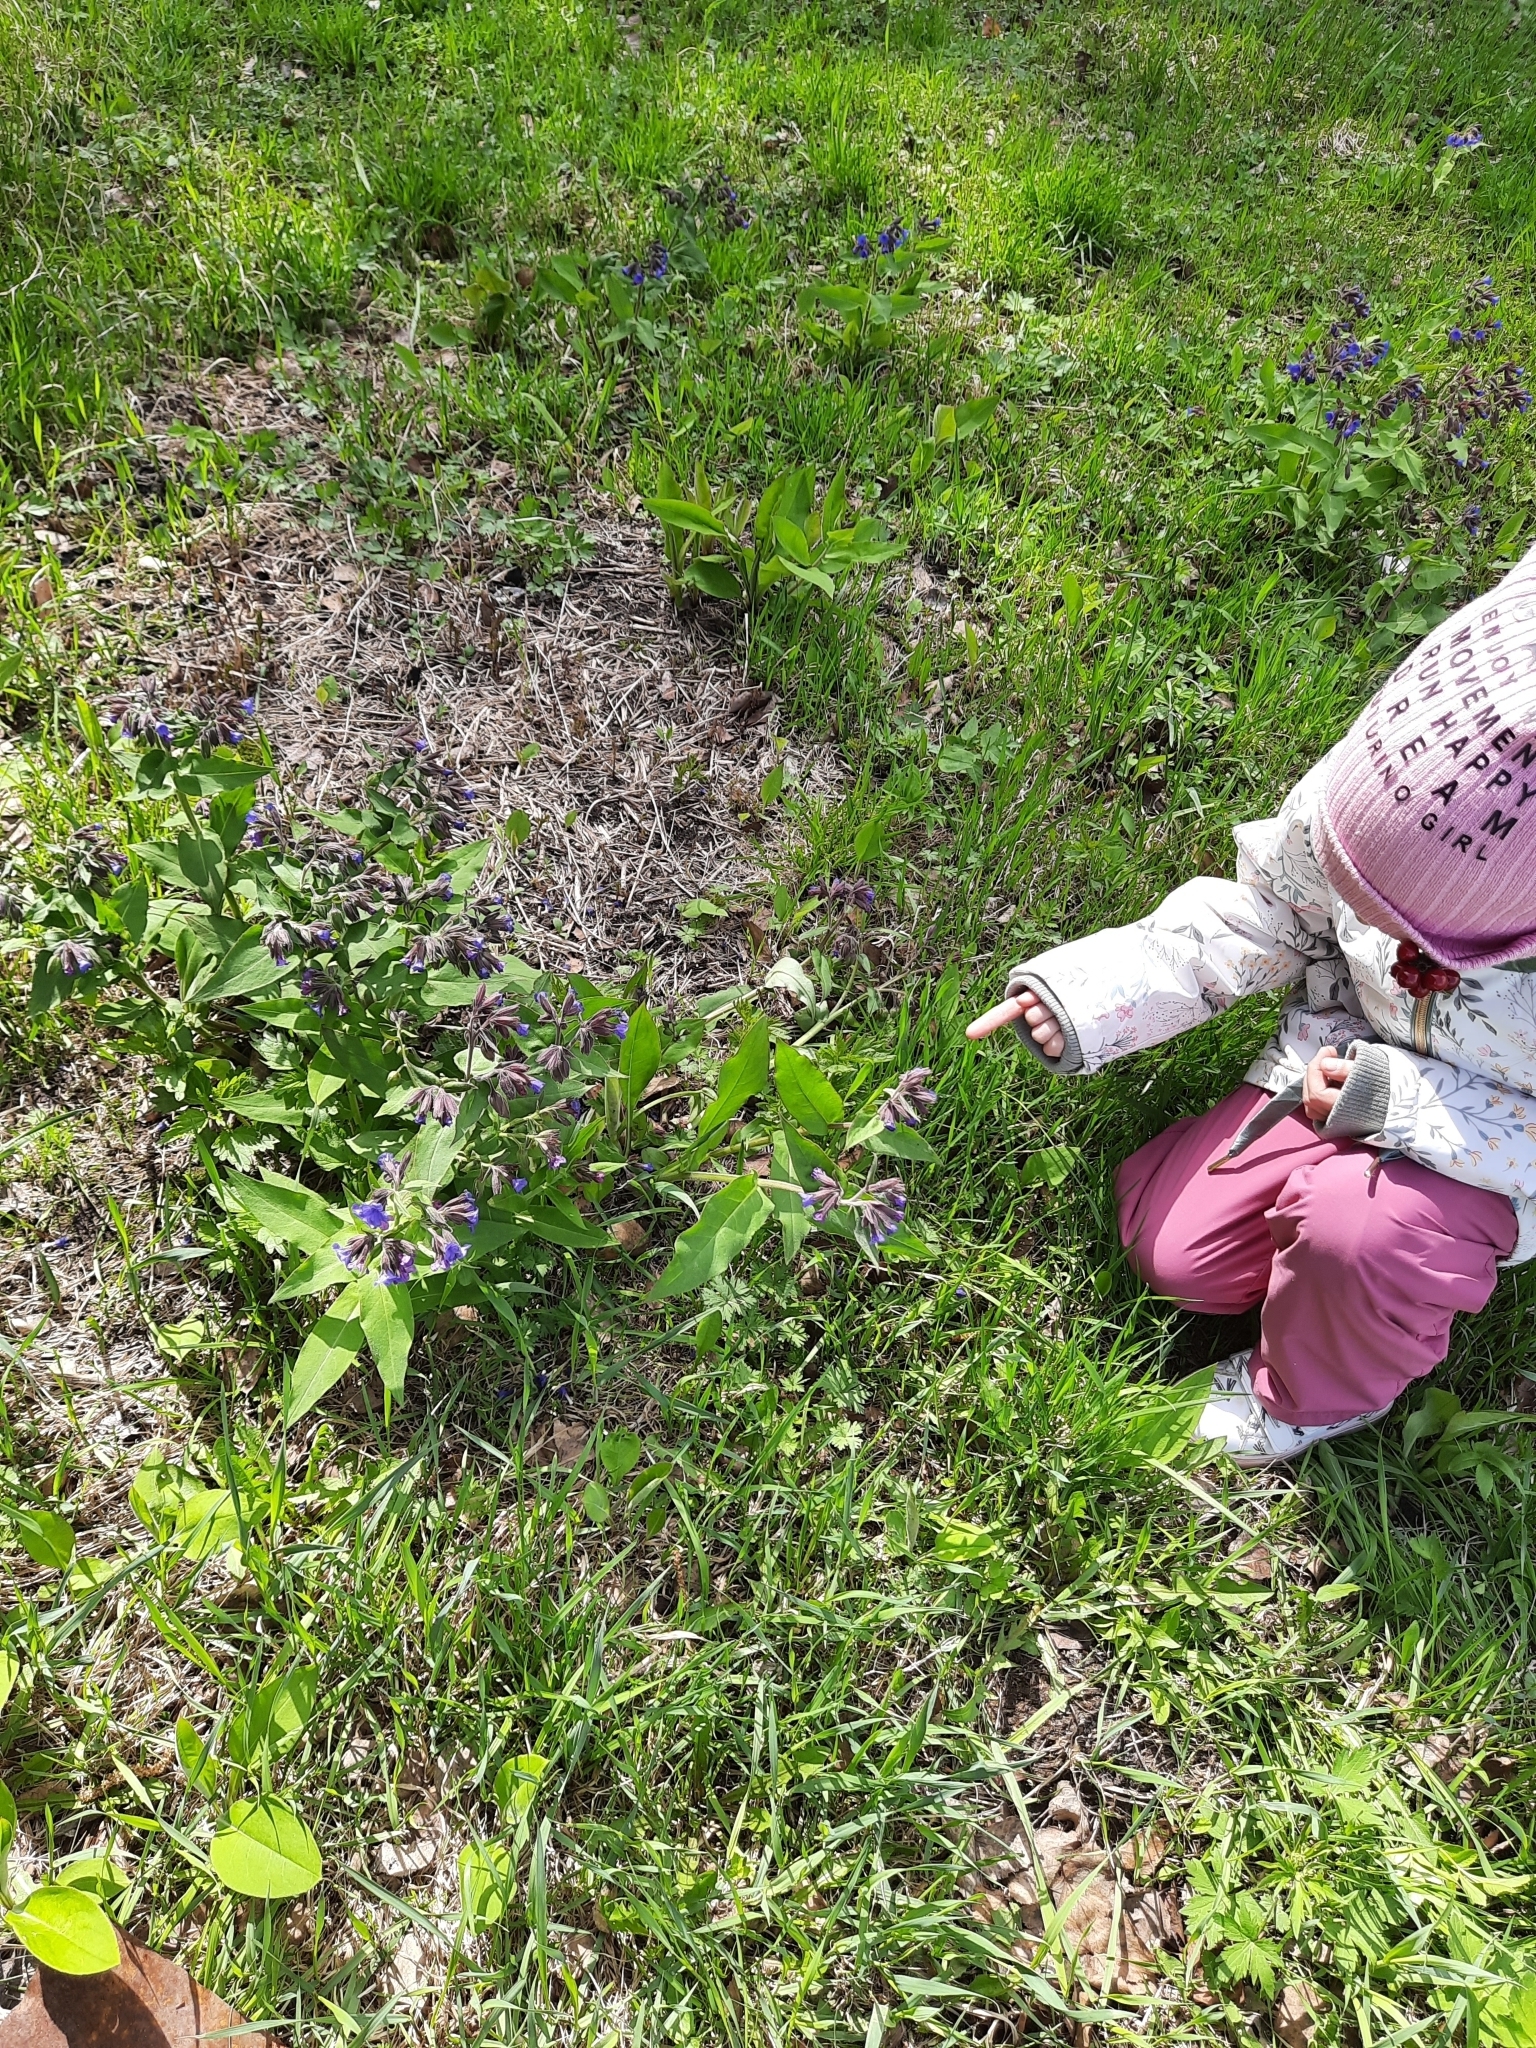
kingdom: Plantae
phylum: Tracheophyta
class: Magnoliopsida
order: Boraginales
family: Boraginaceae
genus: Pulmonaria
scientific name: Pulmonaria mollis
